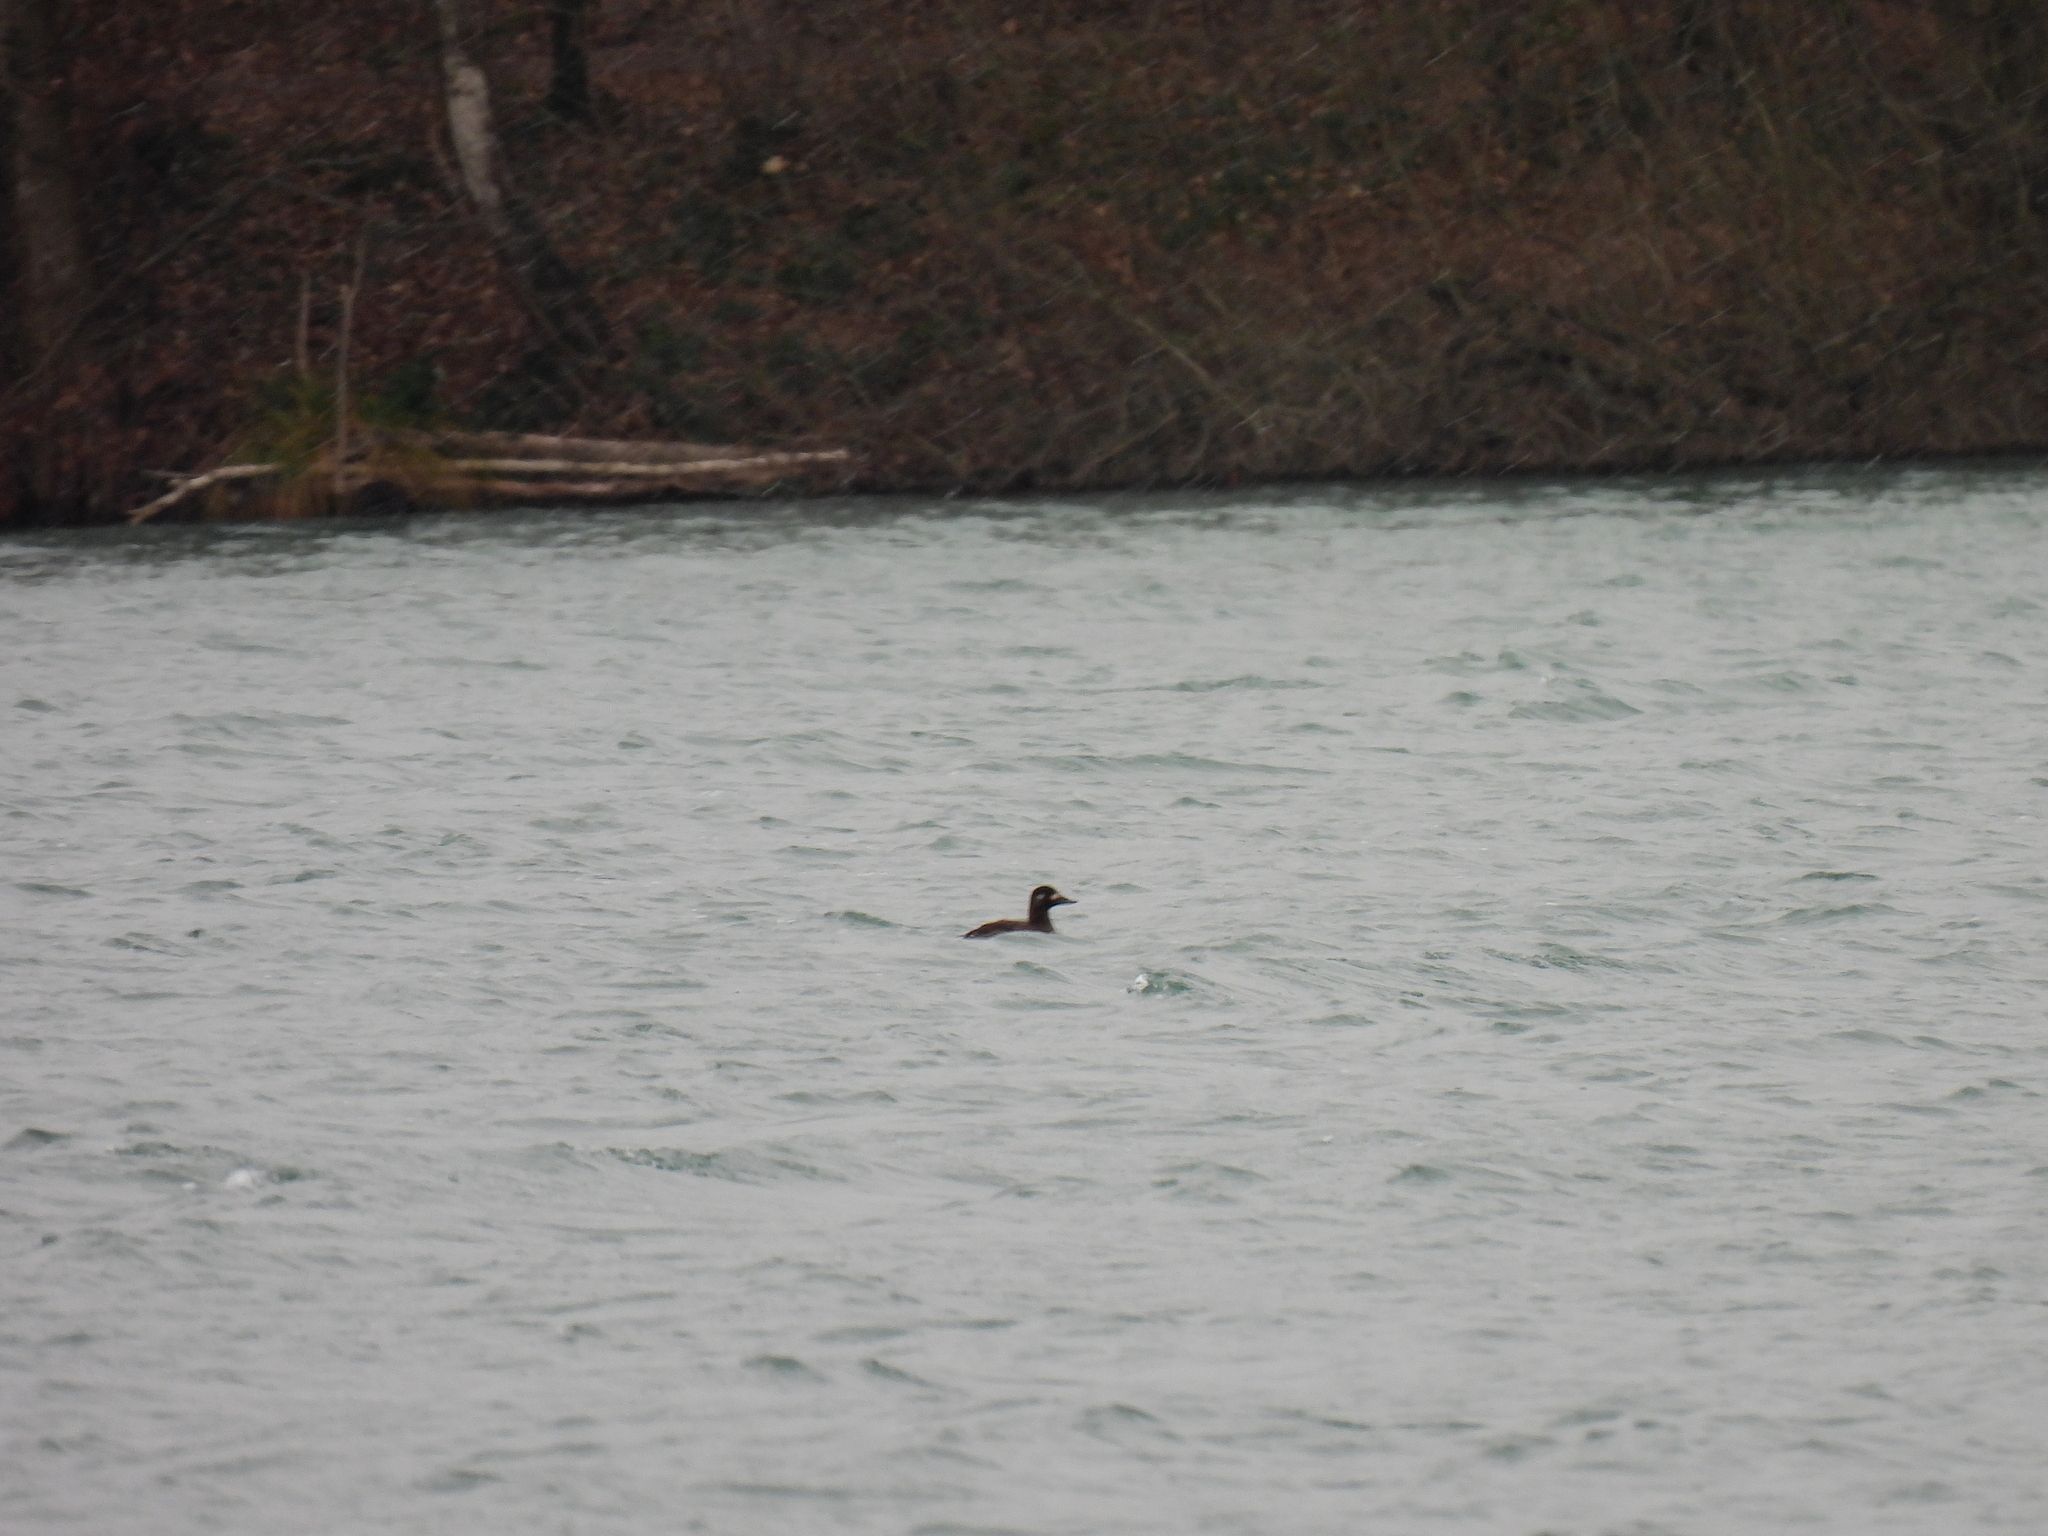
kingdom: Animalia
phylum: Chordata
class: Aves
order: Anseriformes
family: Anatidae
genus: Melanitta
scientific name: Melanitta fusca
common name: Velvet scoter
